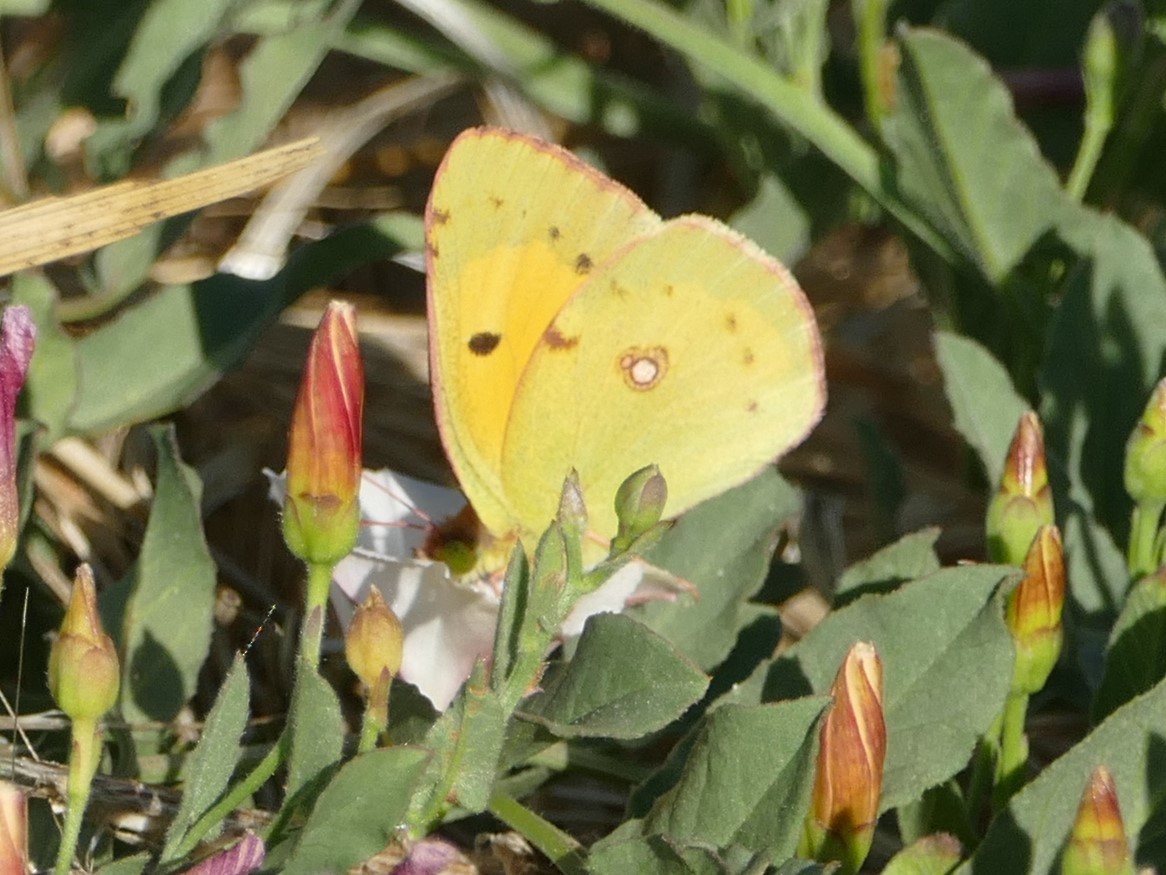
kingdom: Animalia
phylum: Arthropoda
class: Insecta
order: Lepidoptera
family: Pieridae
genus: Colias
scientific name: Colias croceus
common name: Clouded yellow
